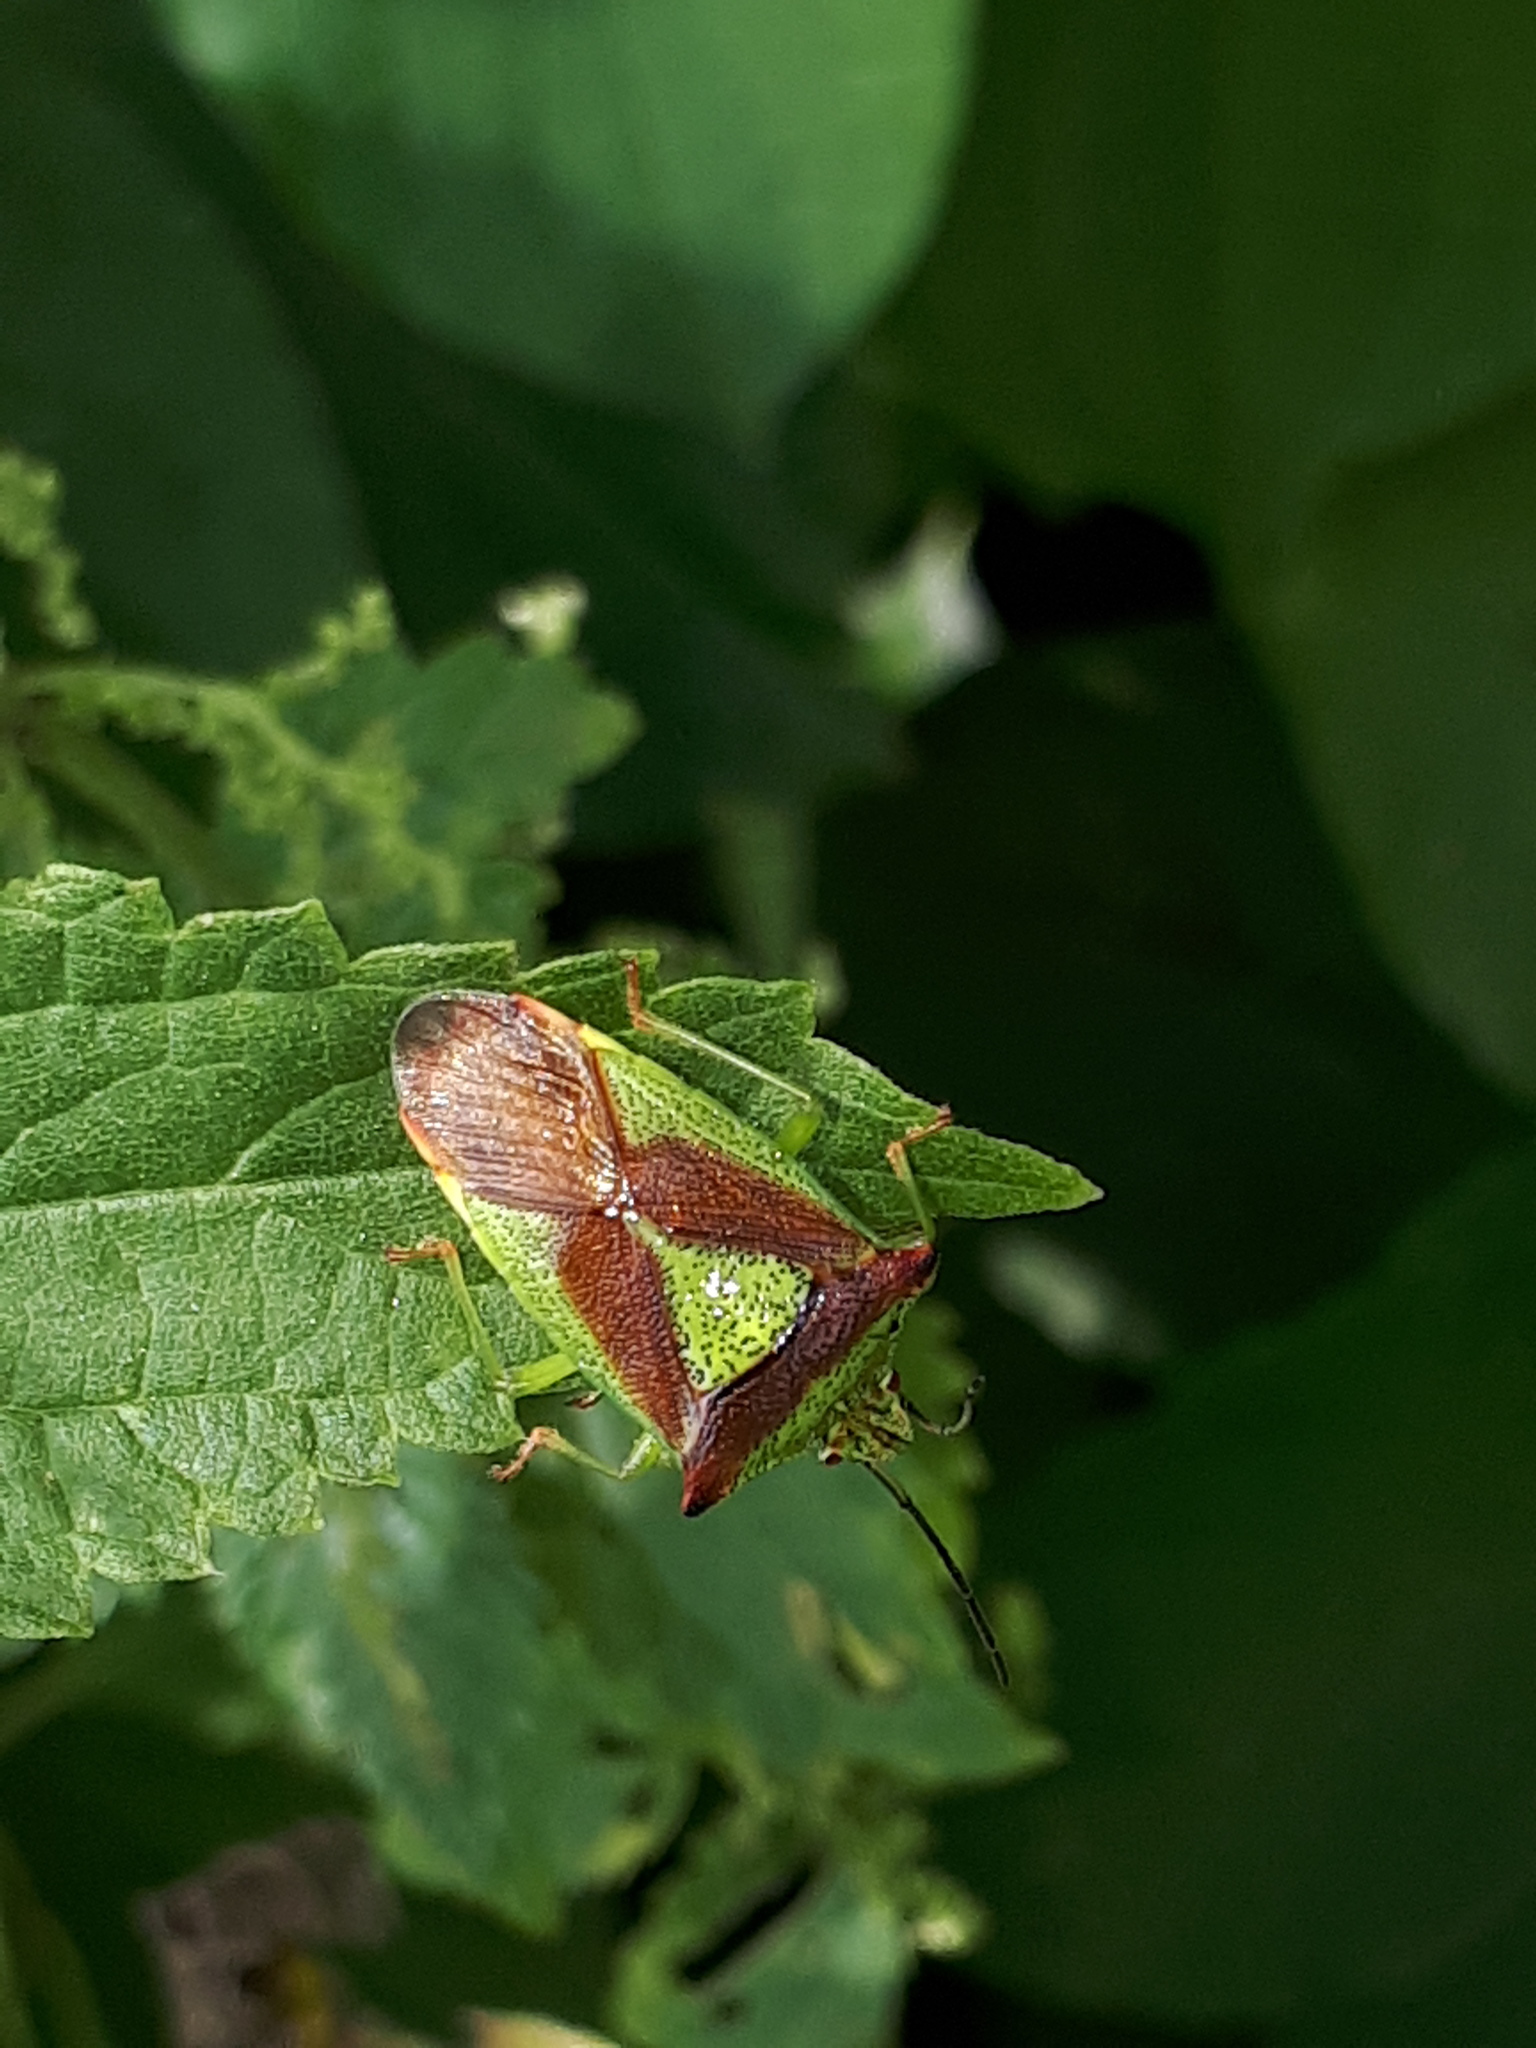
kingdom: Animalia
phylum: Arthropoda
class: Insecta
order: Hemiptera
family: Acanthosomatidae
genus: Acanthosoma
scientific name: Acanthosoma haemorrhoidale
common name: Hawthorn shieldbug
